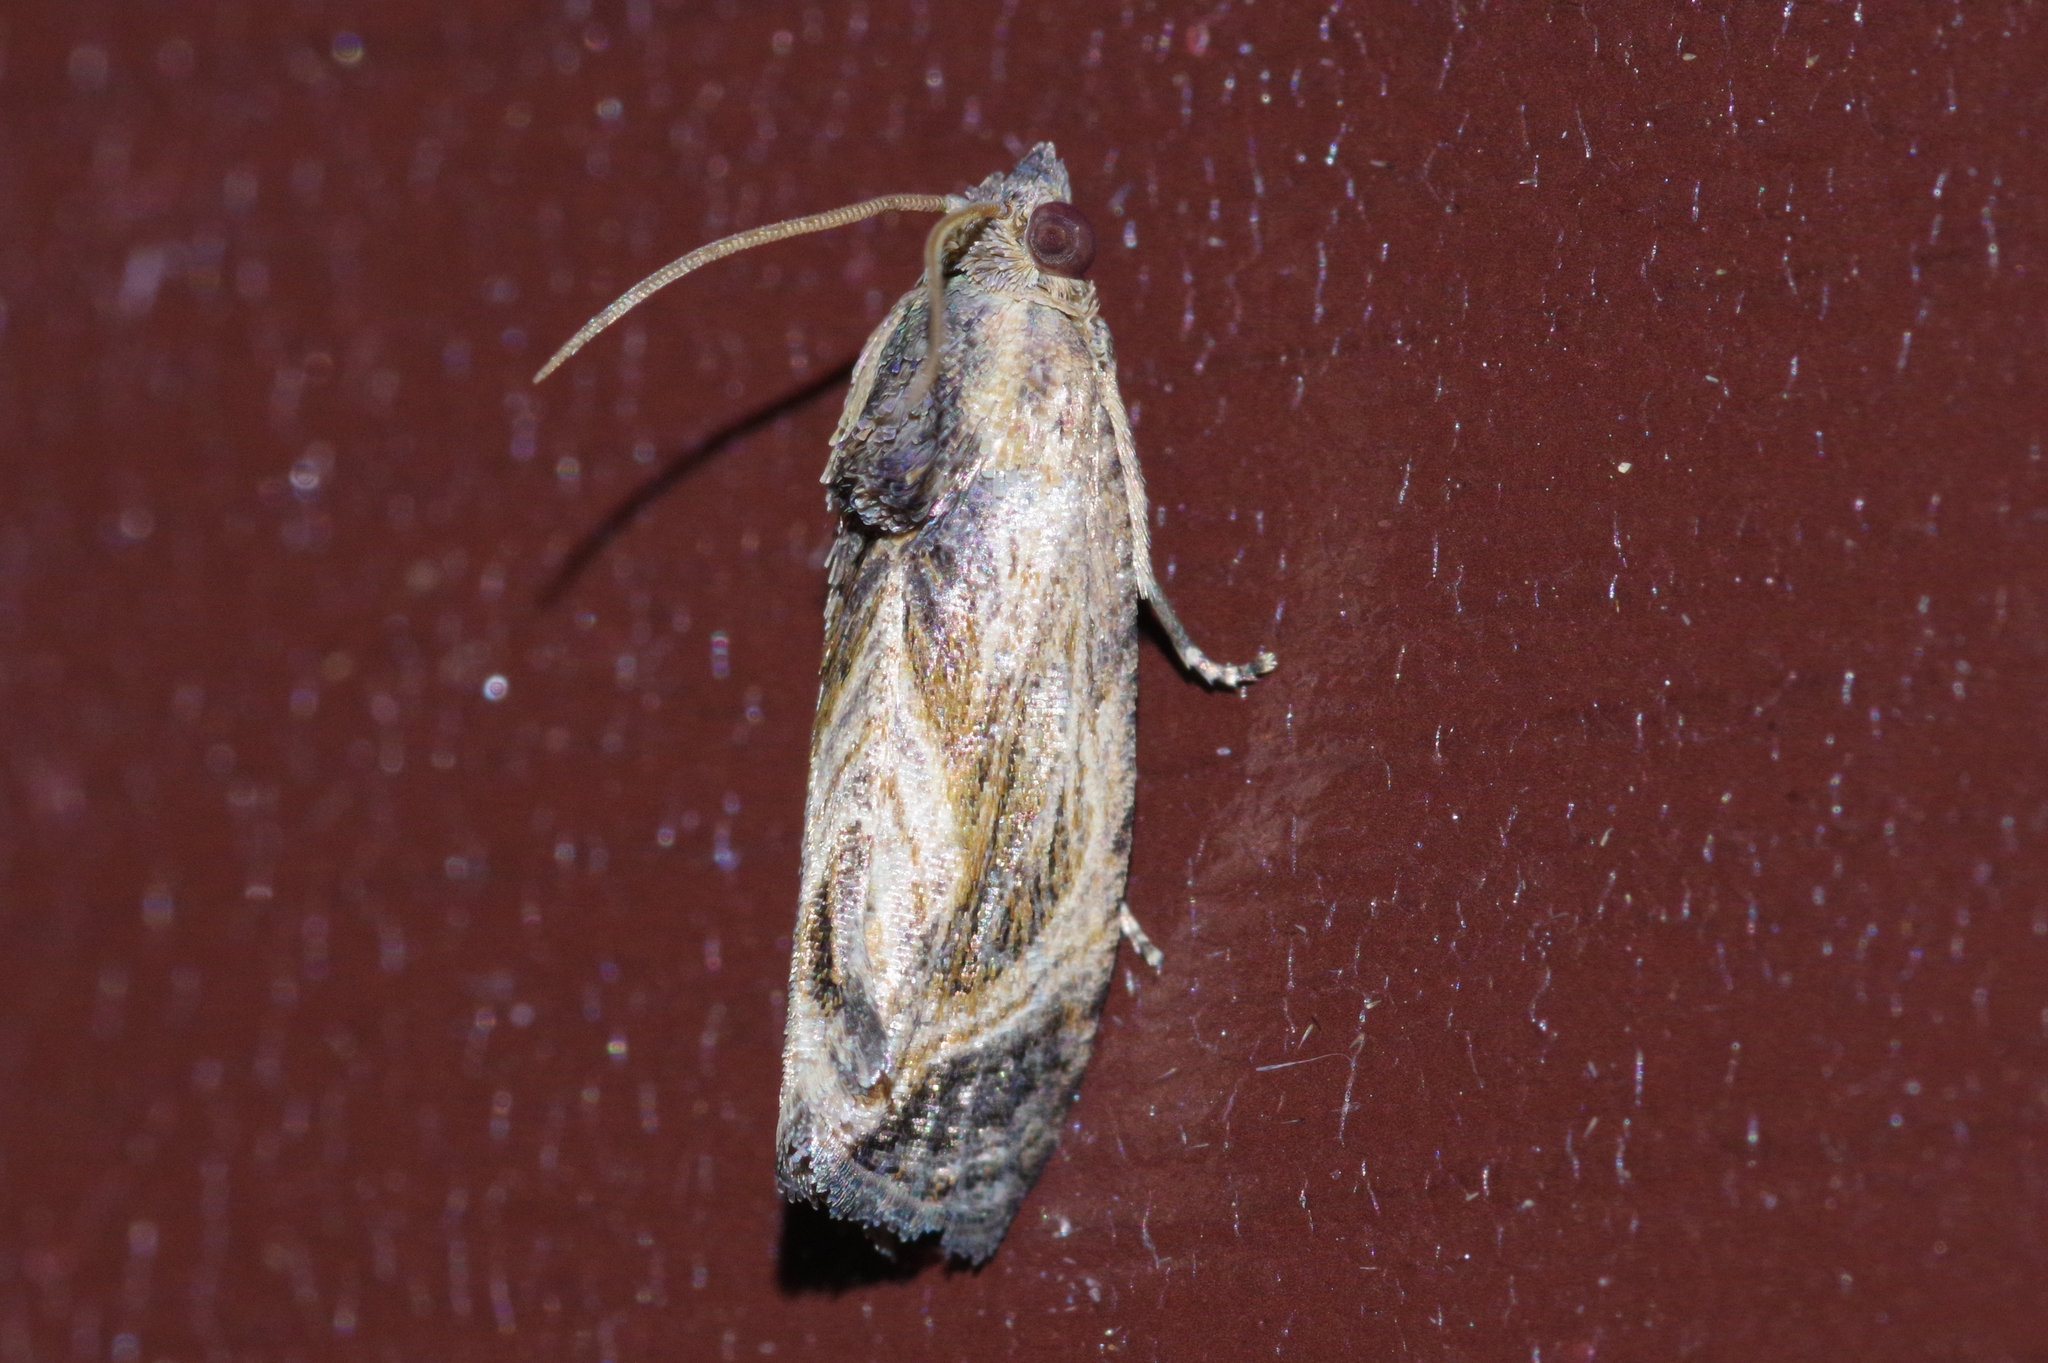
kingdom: Animalia
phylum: Arthropoda
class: Insecta
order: Lepidoptera
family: Tortricidae
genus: Cryptophlebia
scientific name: Cryptophlebia repletana
